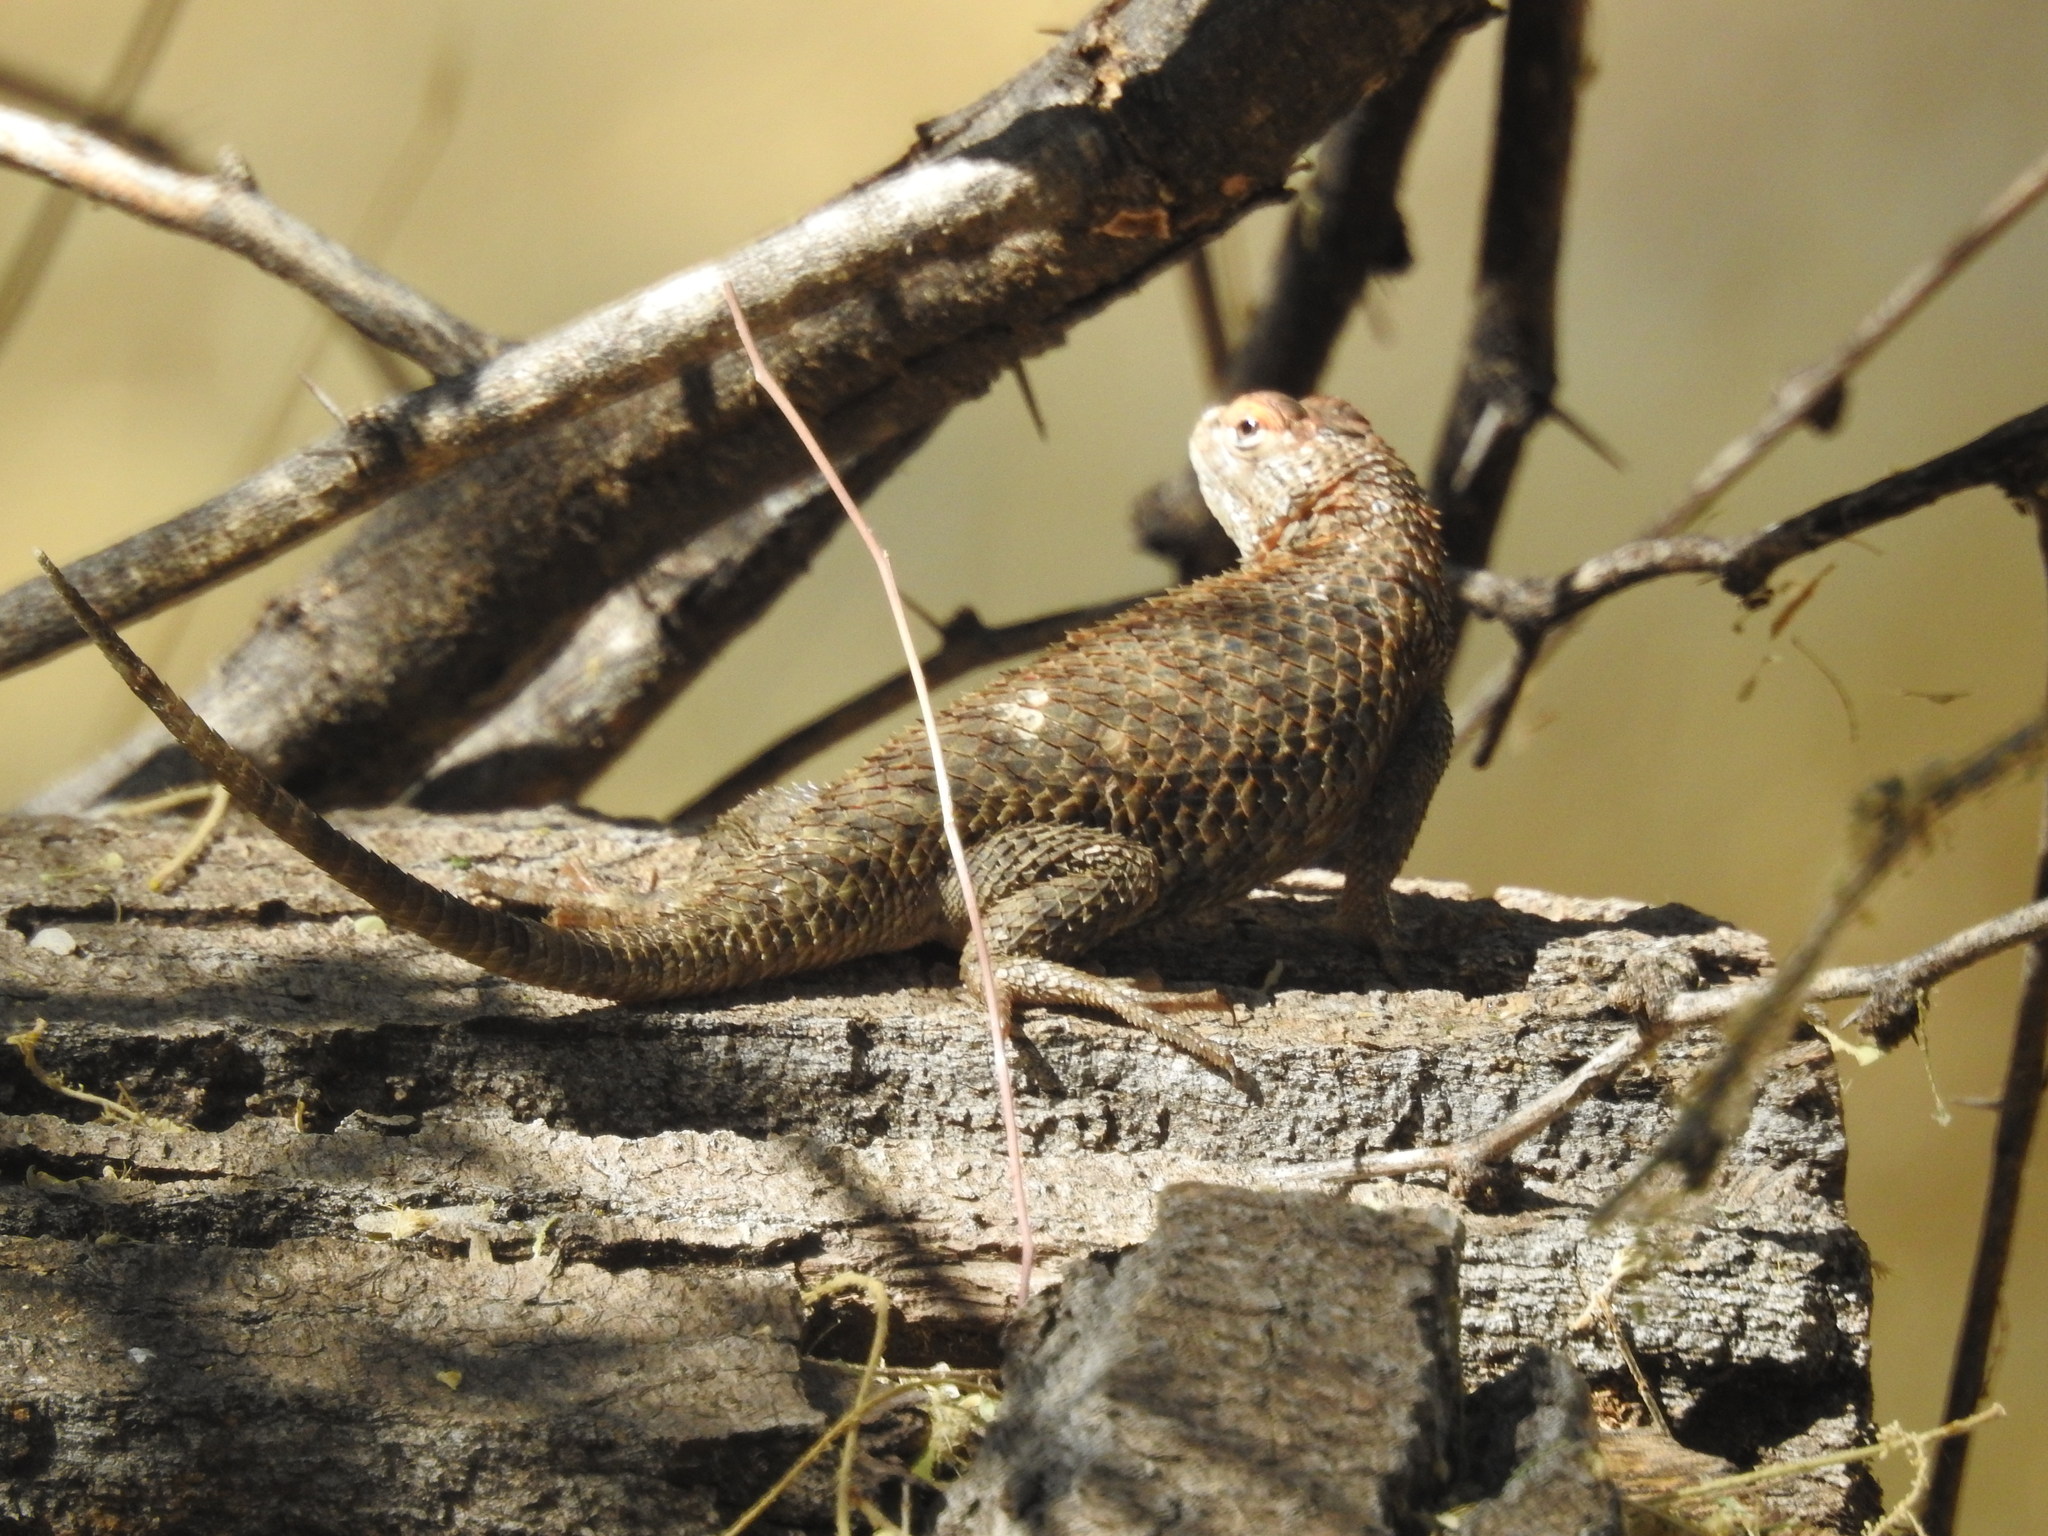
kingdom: Animalia
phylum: Chordata
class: Squamata
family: Phrynosomatidae
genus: Sceloporus
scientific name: Sceloporus magister
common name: Desert spiny lizard
